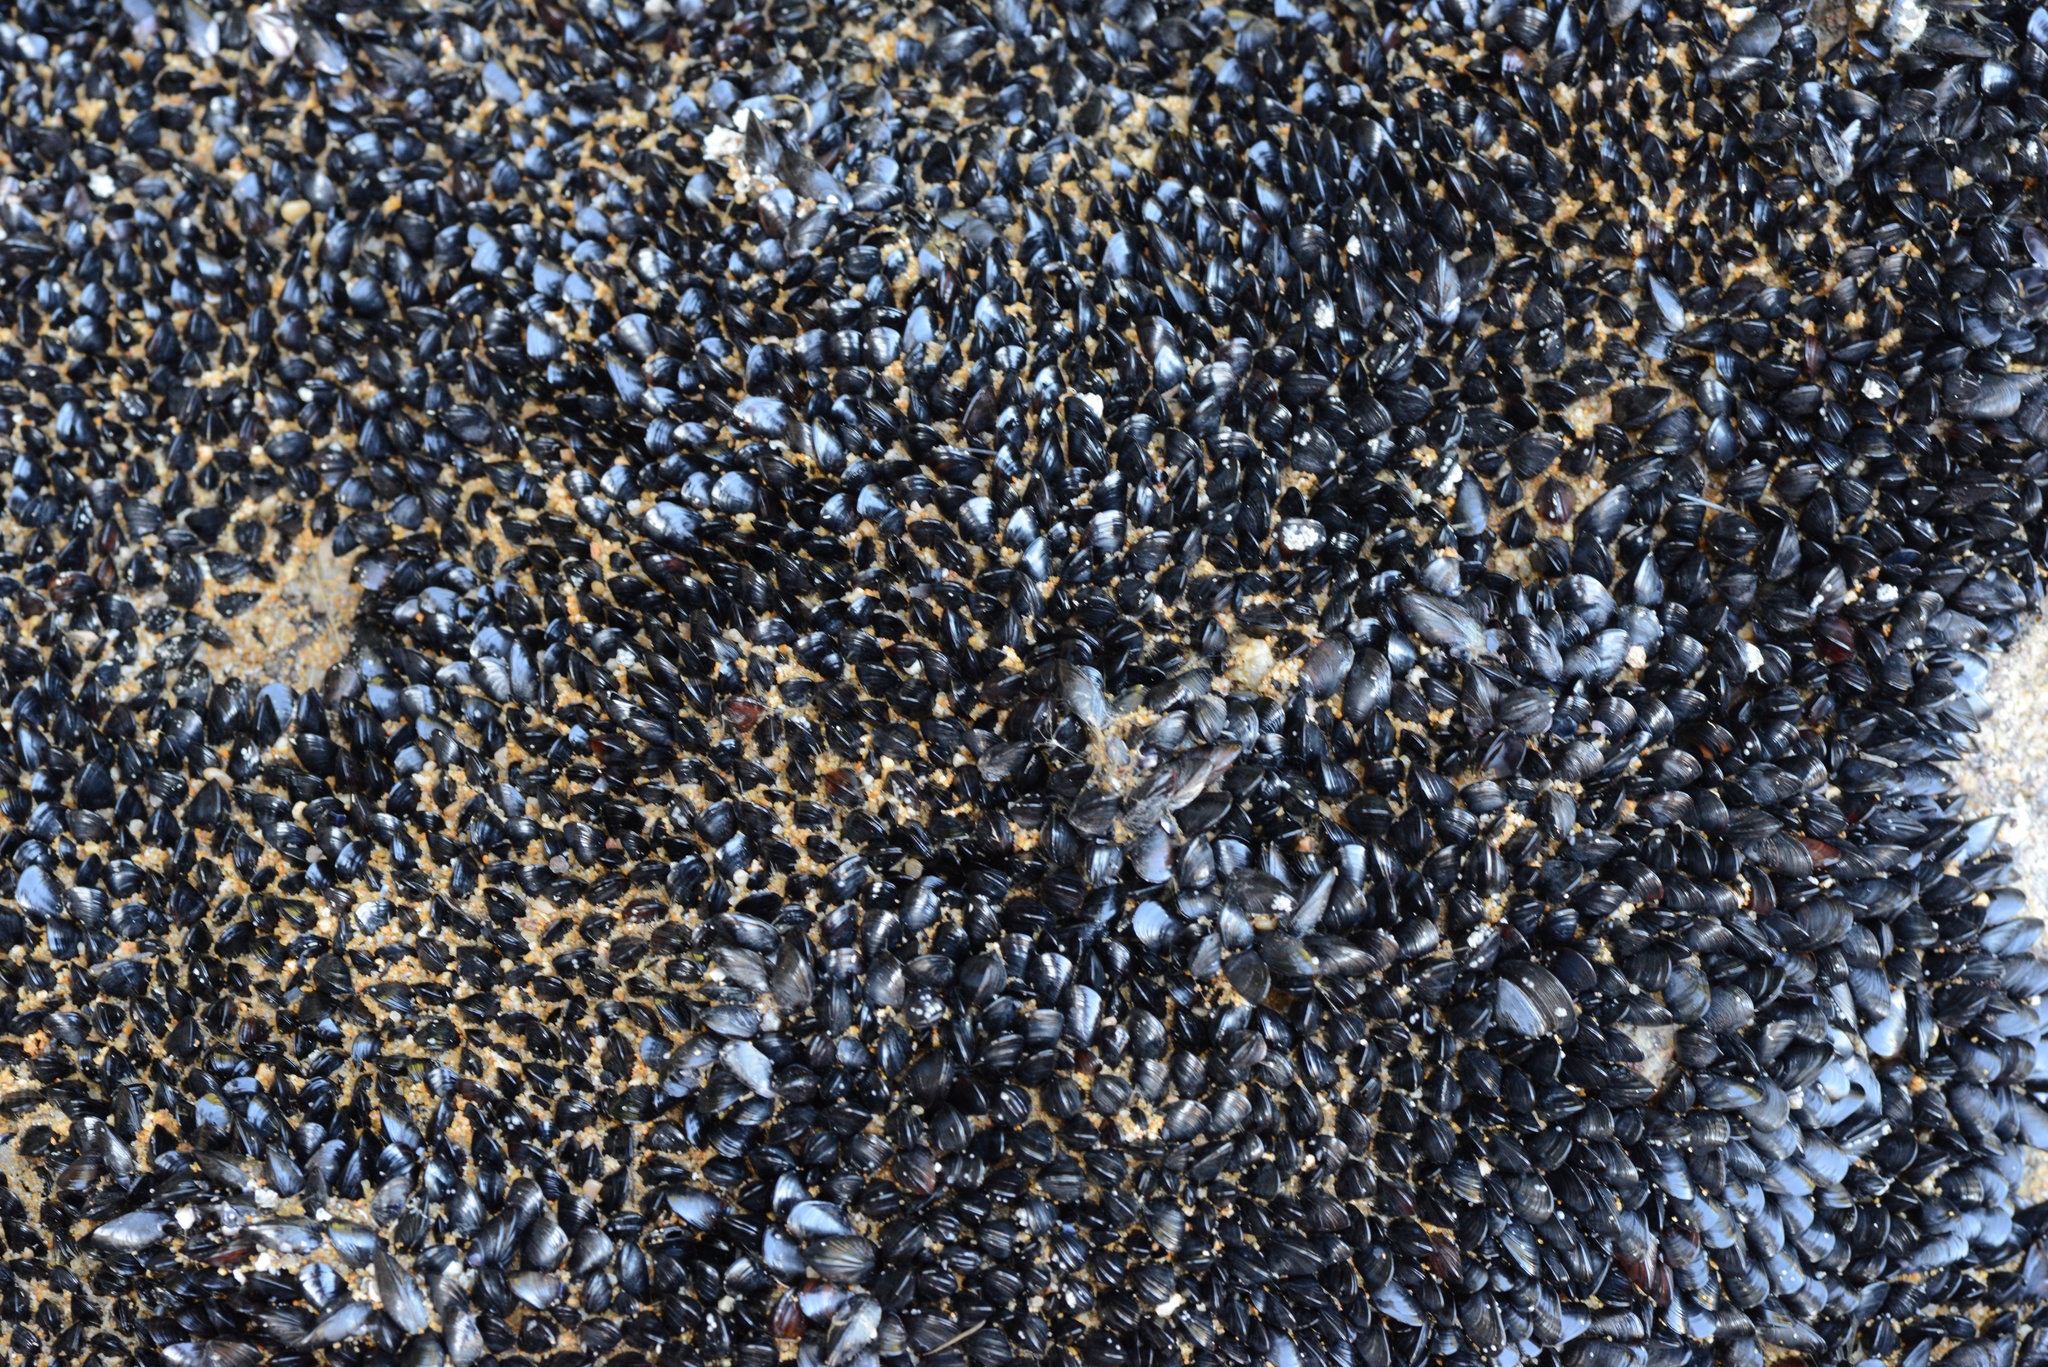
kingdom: Animalia
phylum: Mollusca
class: Bivalvia
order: Mytilida
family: Mytilidae
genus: Xenostrobus
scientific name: Xenostrobus neozelanicus
